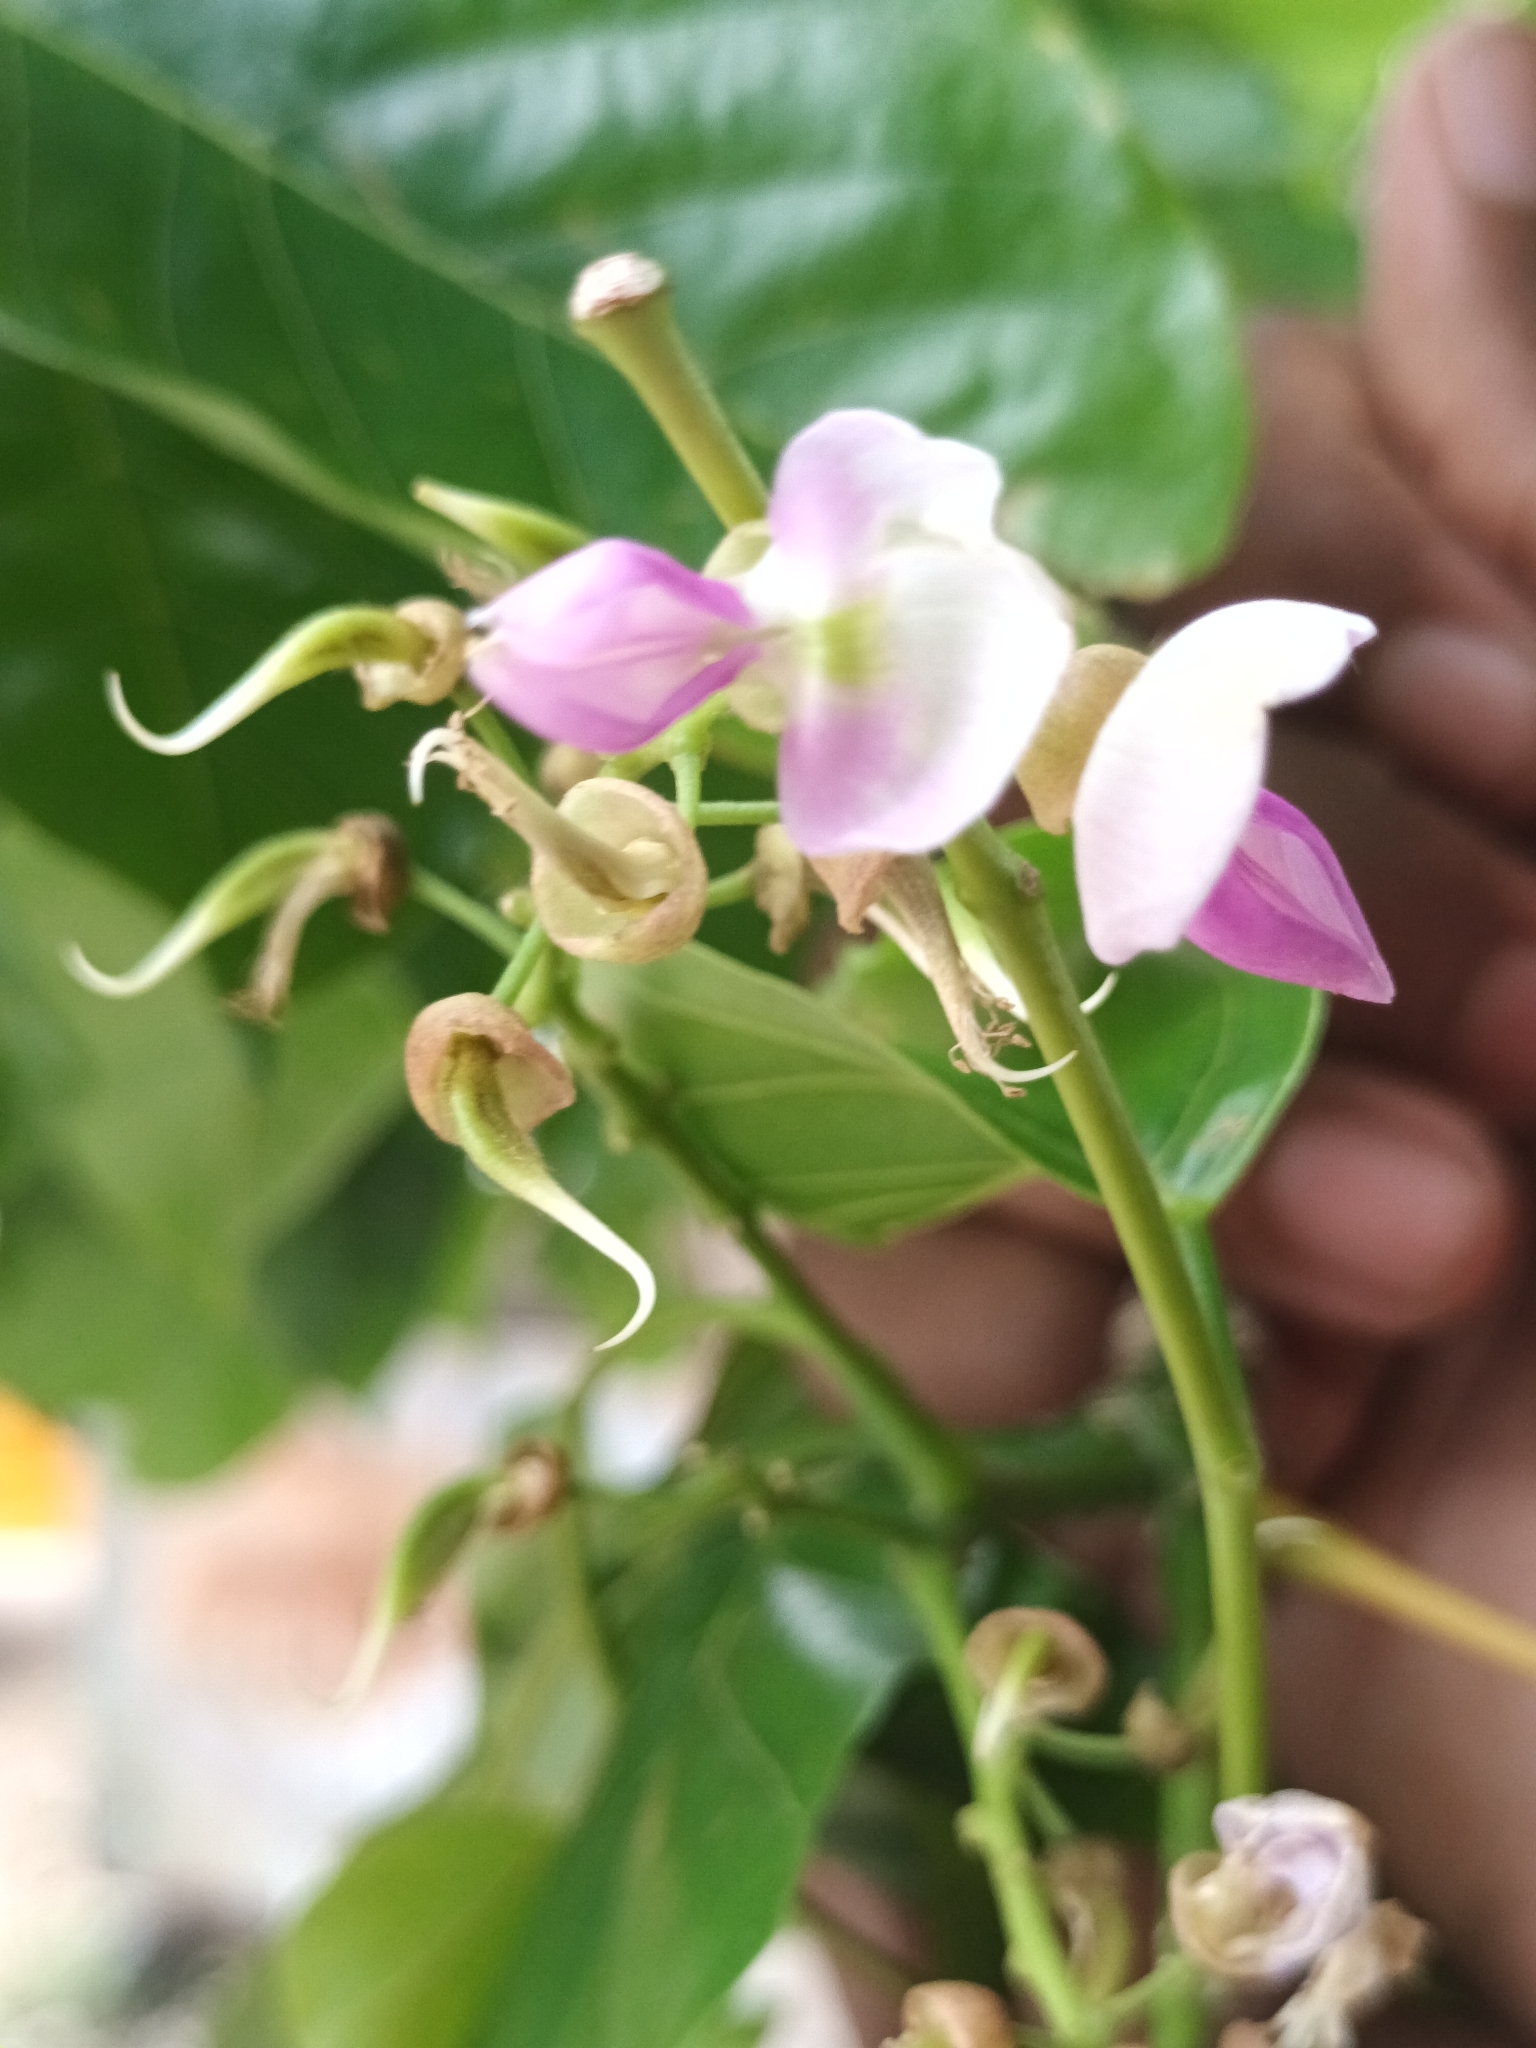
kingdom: Plantae
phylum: Tracheophyta
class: Magnoliopsida
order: Fabales
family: Fabaceae
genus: Pongamia
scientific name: Pongamia pinnata
